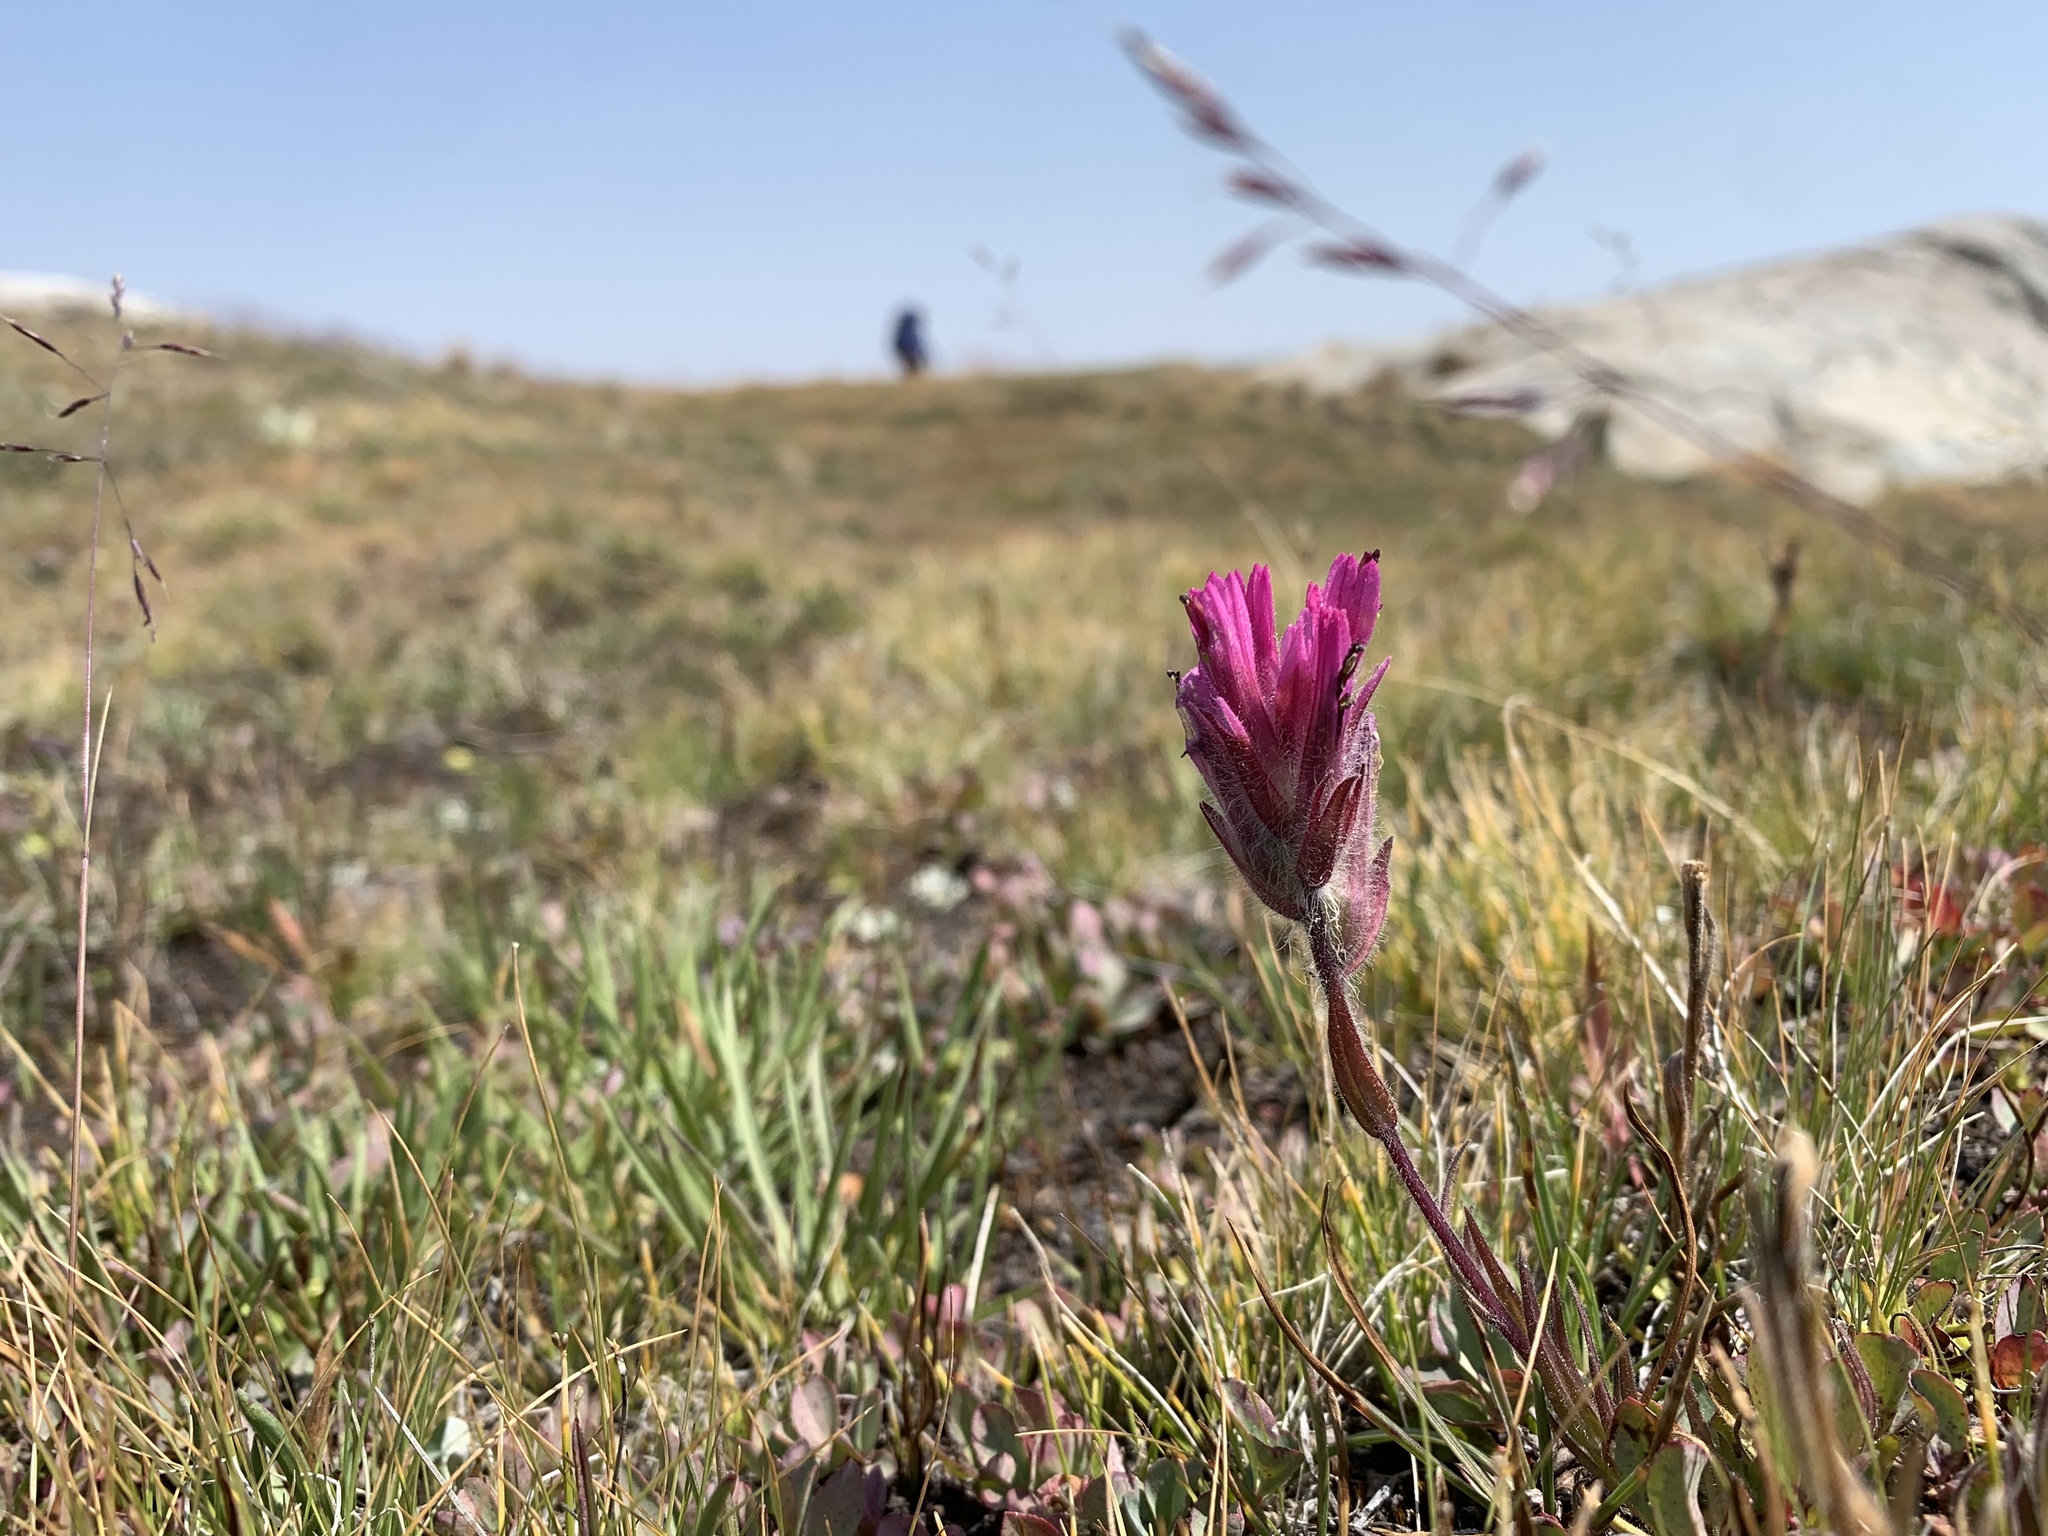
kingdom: Plantae
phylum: Tracheophyta
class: Magnoliopsida
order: Lamiales
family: Orobanchaceae
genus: Castilleja
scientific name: Castilleja lemmonii
